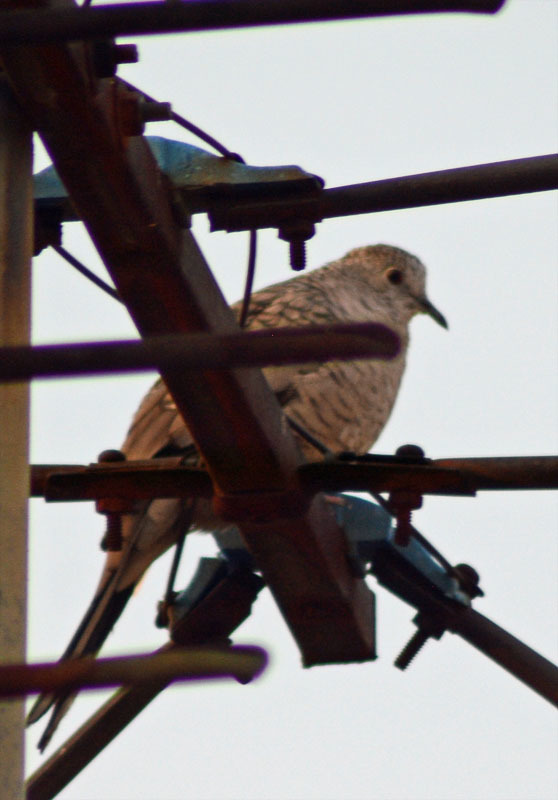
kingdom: Animalia
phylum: Chordata
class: Aves
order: Columbiformes
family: Columbidae
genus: Columbina
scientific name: Columbina inca
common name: Inca dove
